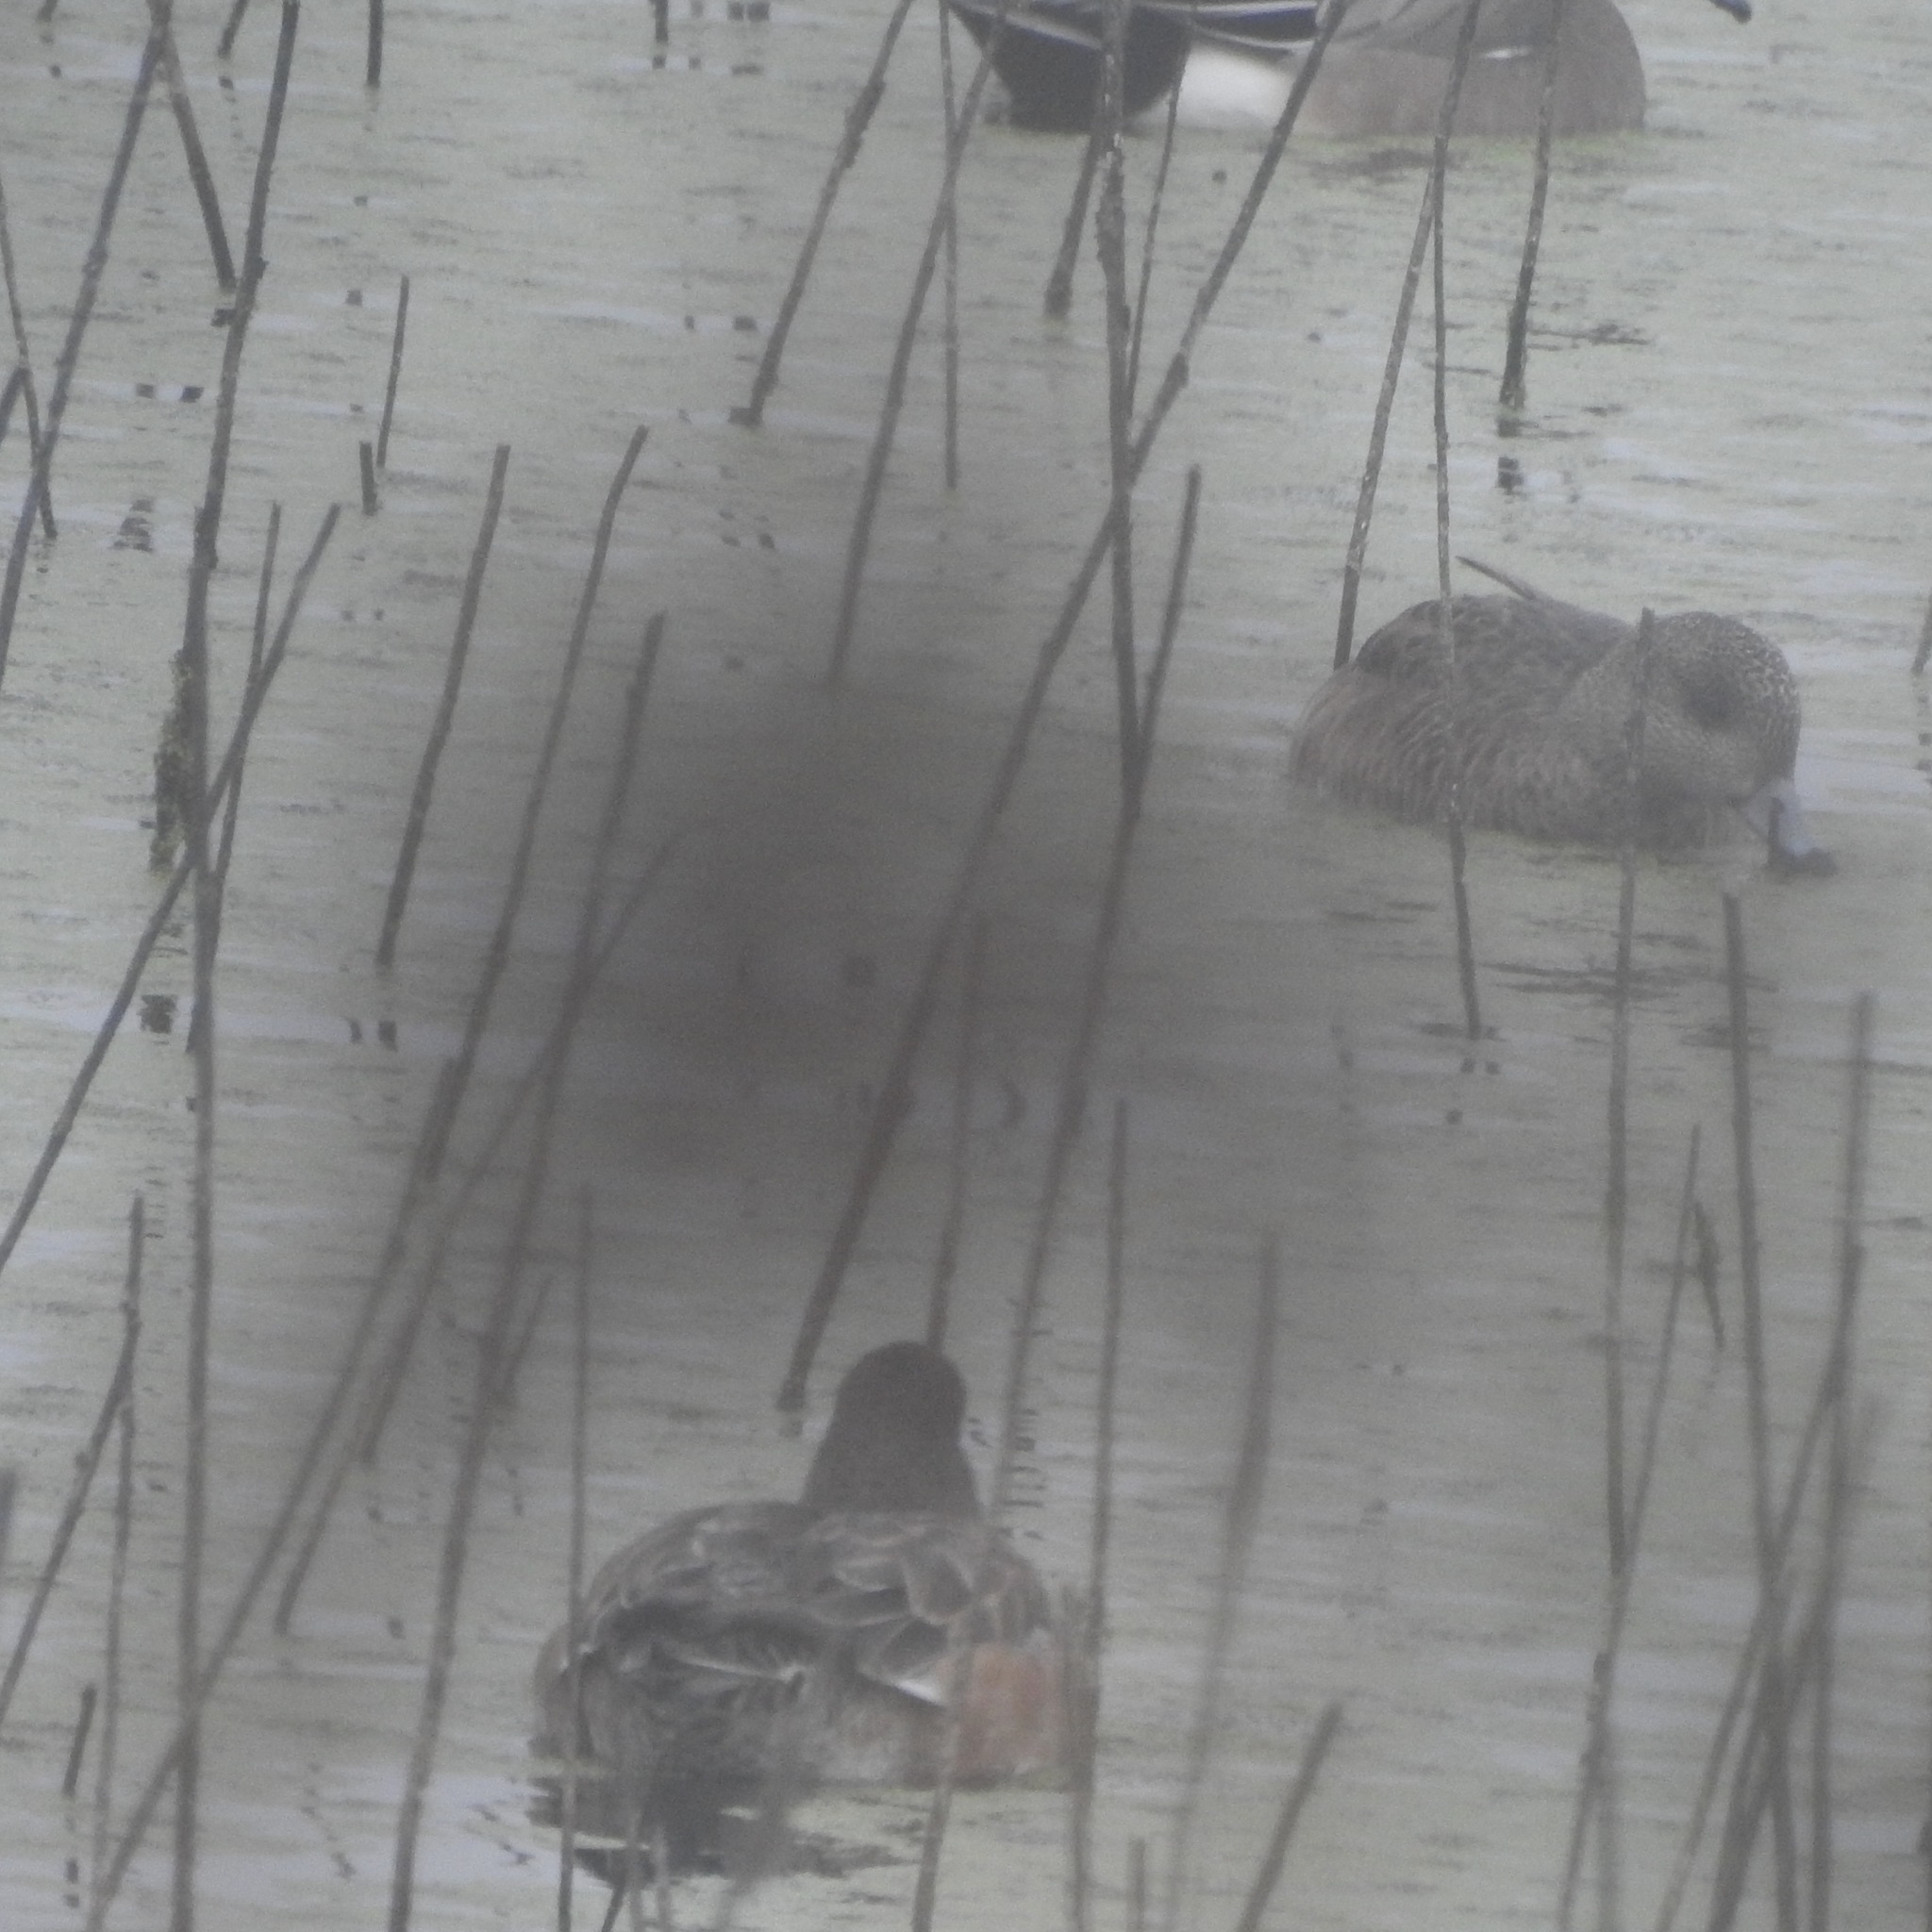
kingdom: Animalia
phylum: Chordata
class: Aves
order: Anseriformes
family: Anatidae
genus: Mareca
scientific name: Mareca americana
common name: American wigeon
